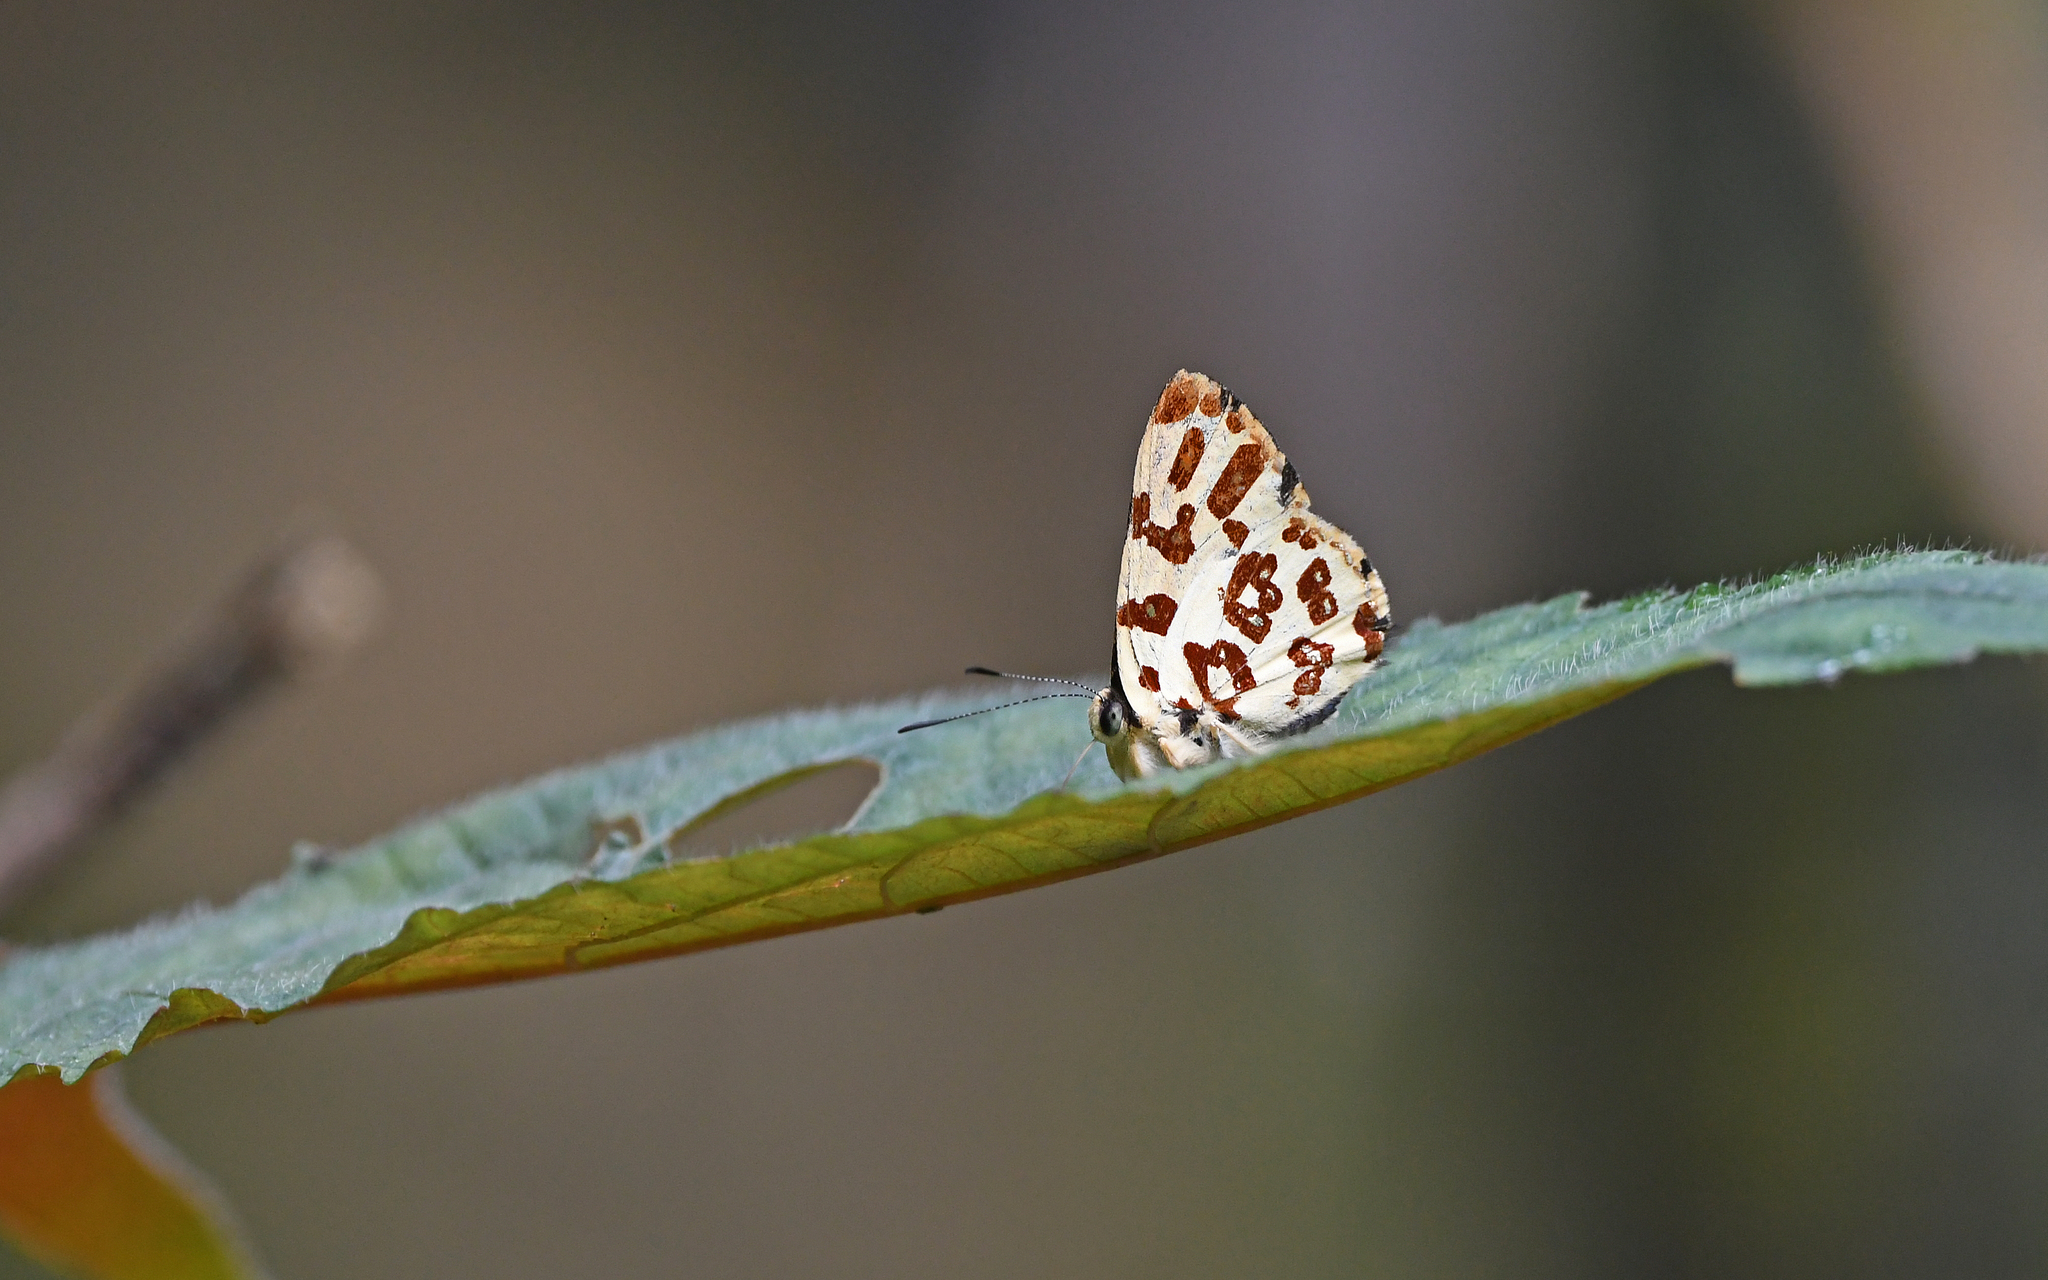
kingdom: Animalia
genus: Anteros
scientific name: Anteros bracteatus
